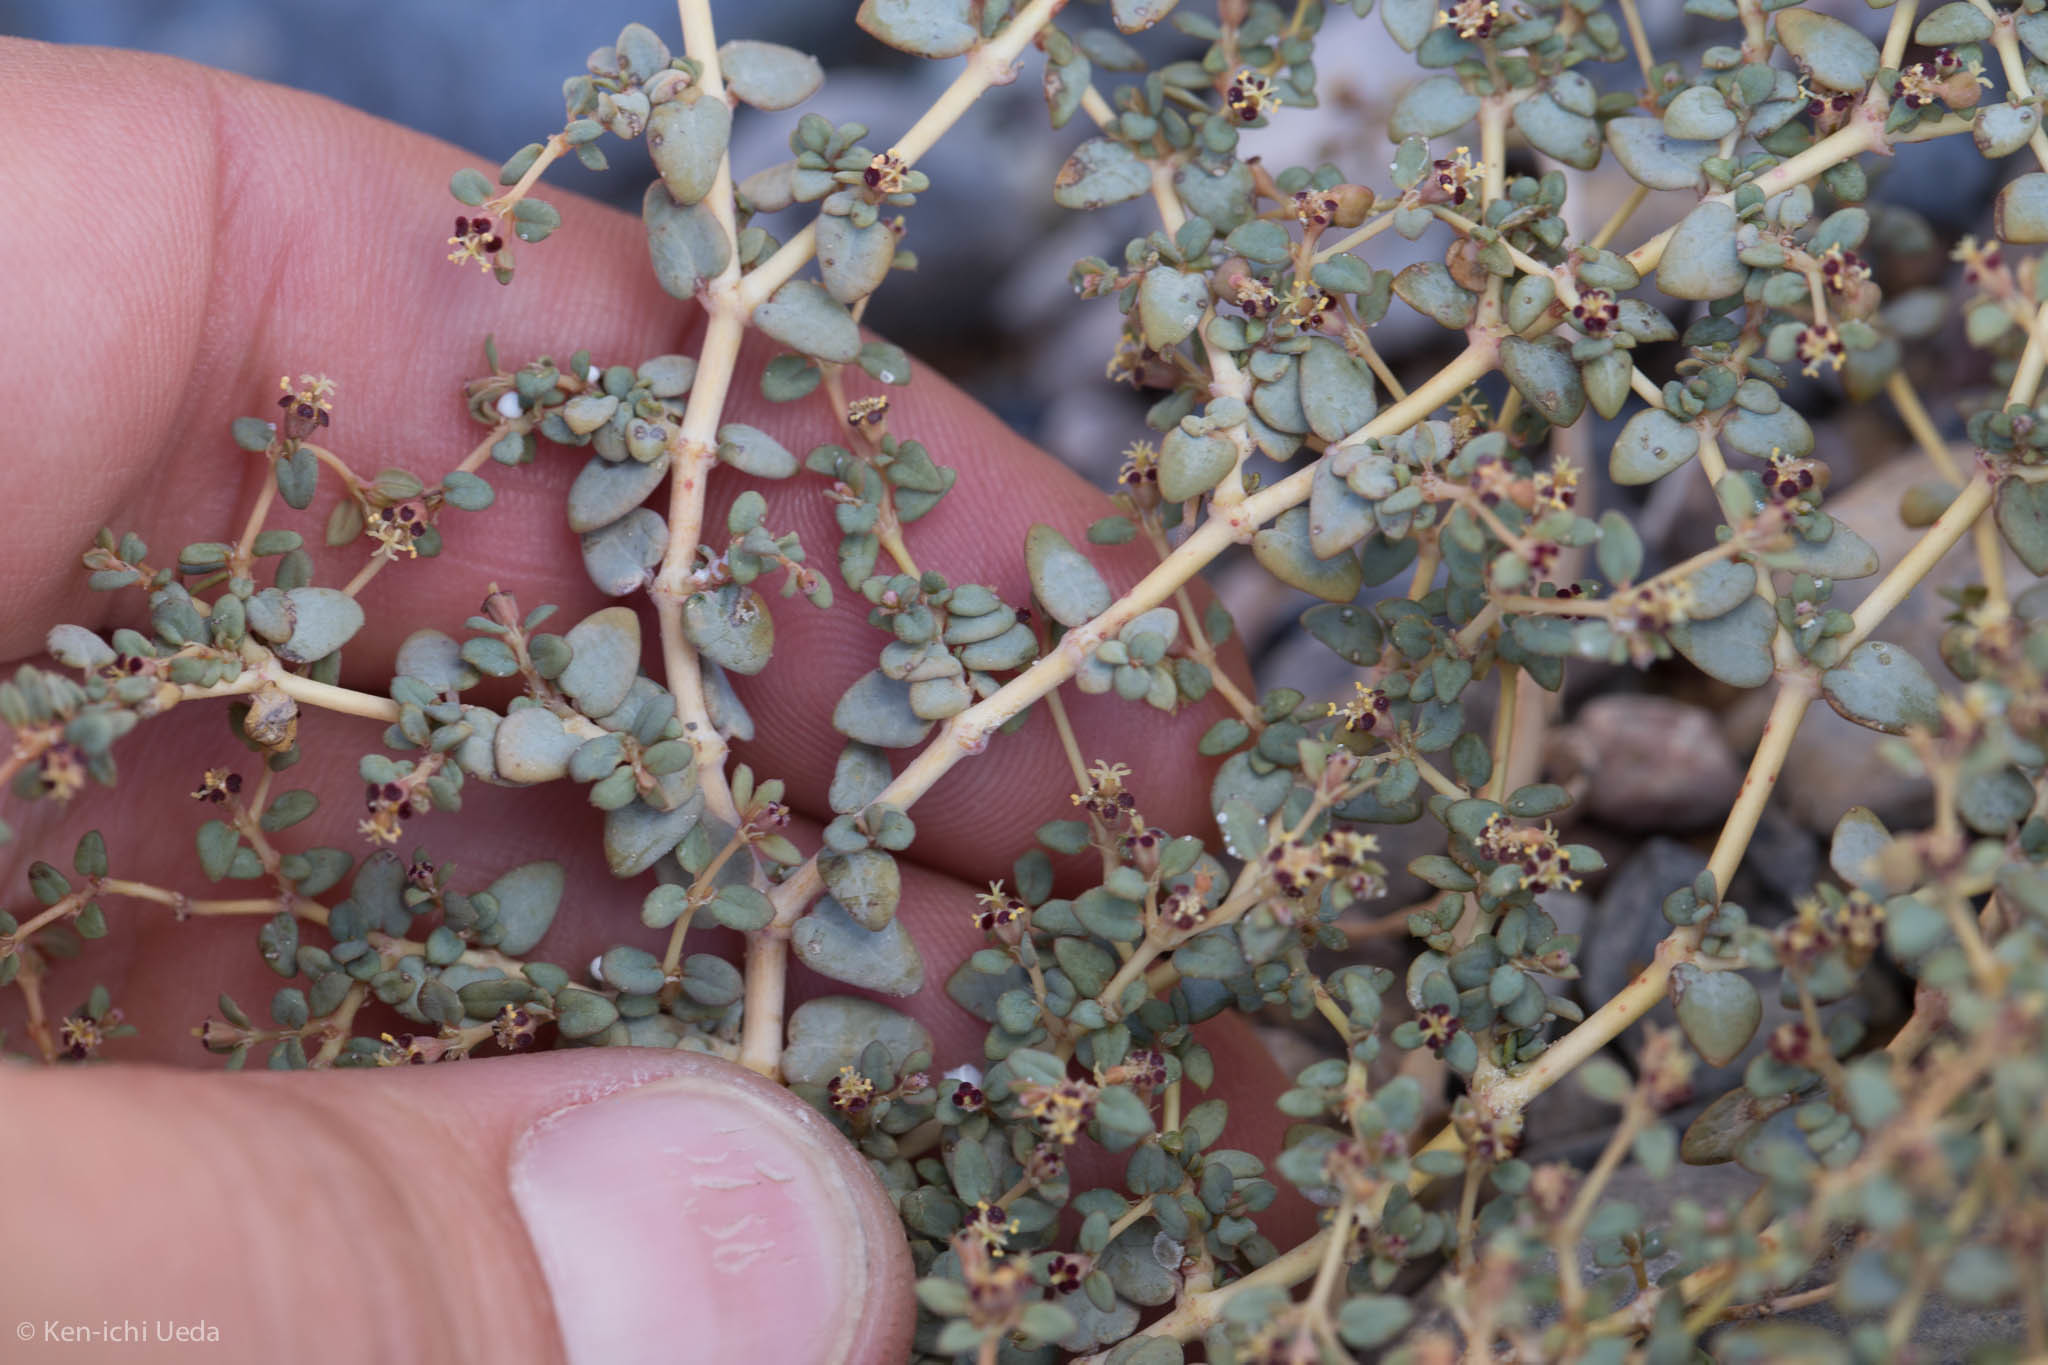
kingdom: Plantae
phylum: Tracheophyta
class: Magnoliopsida
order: Malpighiales
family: Euphorbiaceae
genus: Euphorbia
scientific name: Euphorbia parishii
